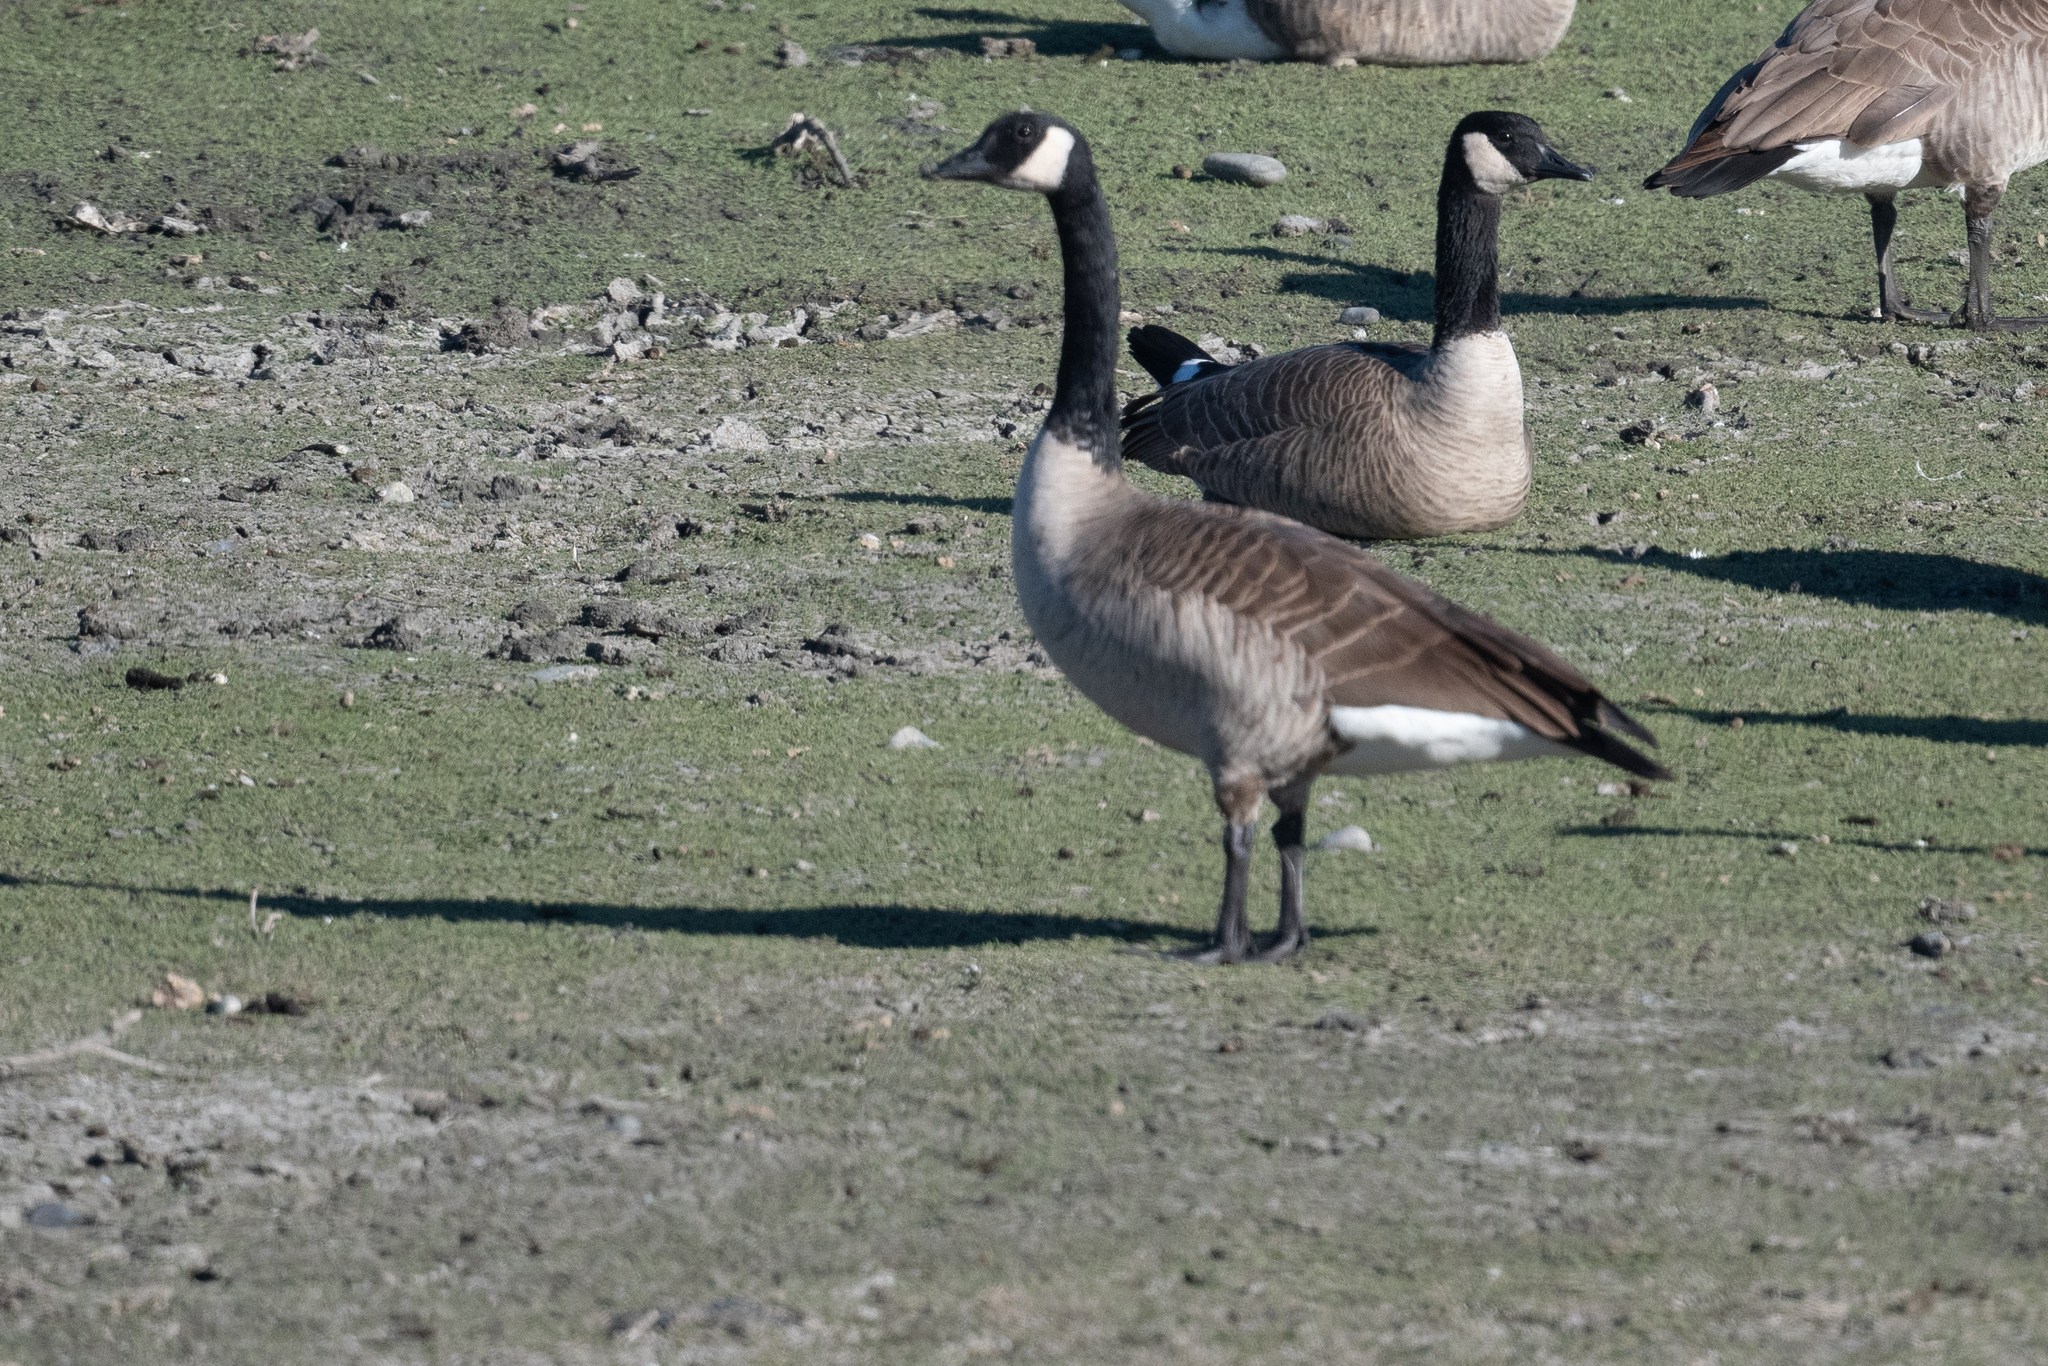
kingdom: Animalia
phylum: Chordata
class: Aves
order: Anseriformes
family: Anatidae
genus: Branta
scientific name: Branta canadensis
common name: Canada goose
